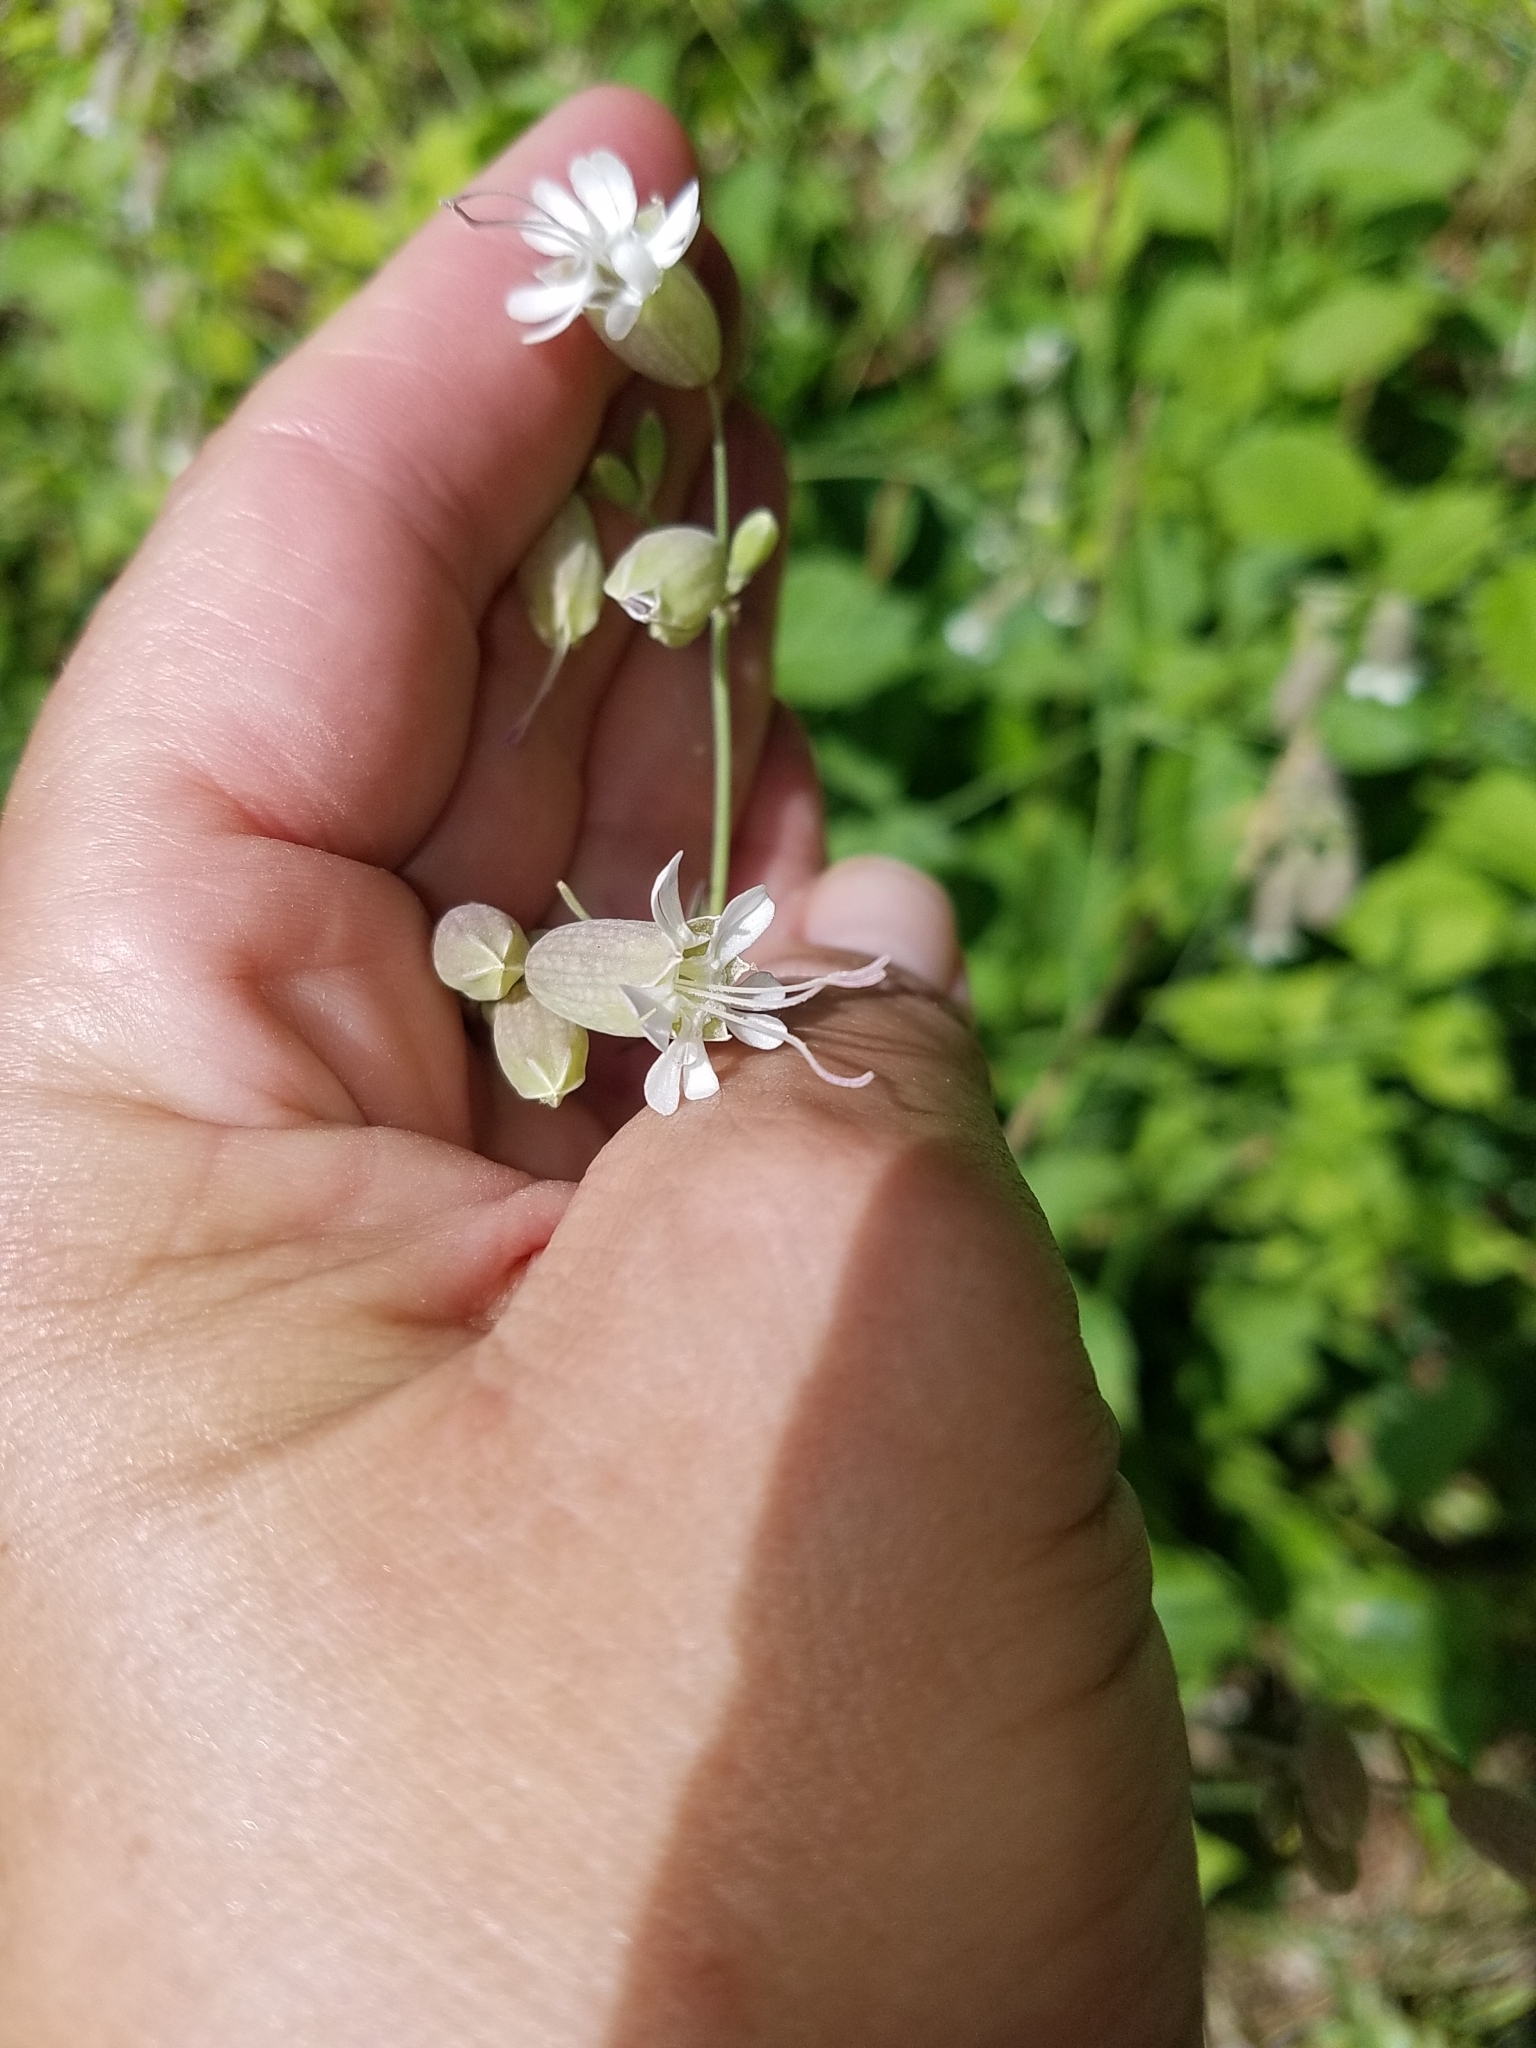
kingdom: Plantae
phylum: Tracheophyta
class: Magnoliopsida
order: Caryophyllales
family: Caryophyllaceae
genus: Silene
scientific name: Silene vulgaris
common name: Bladder campion
